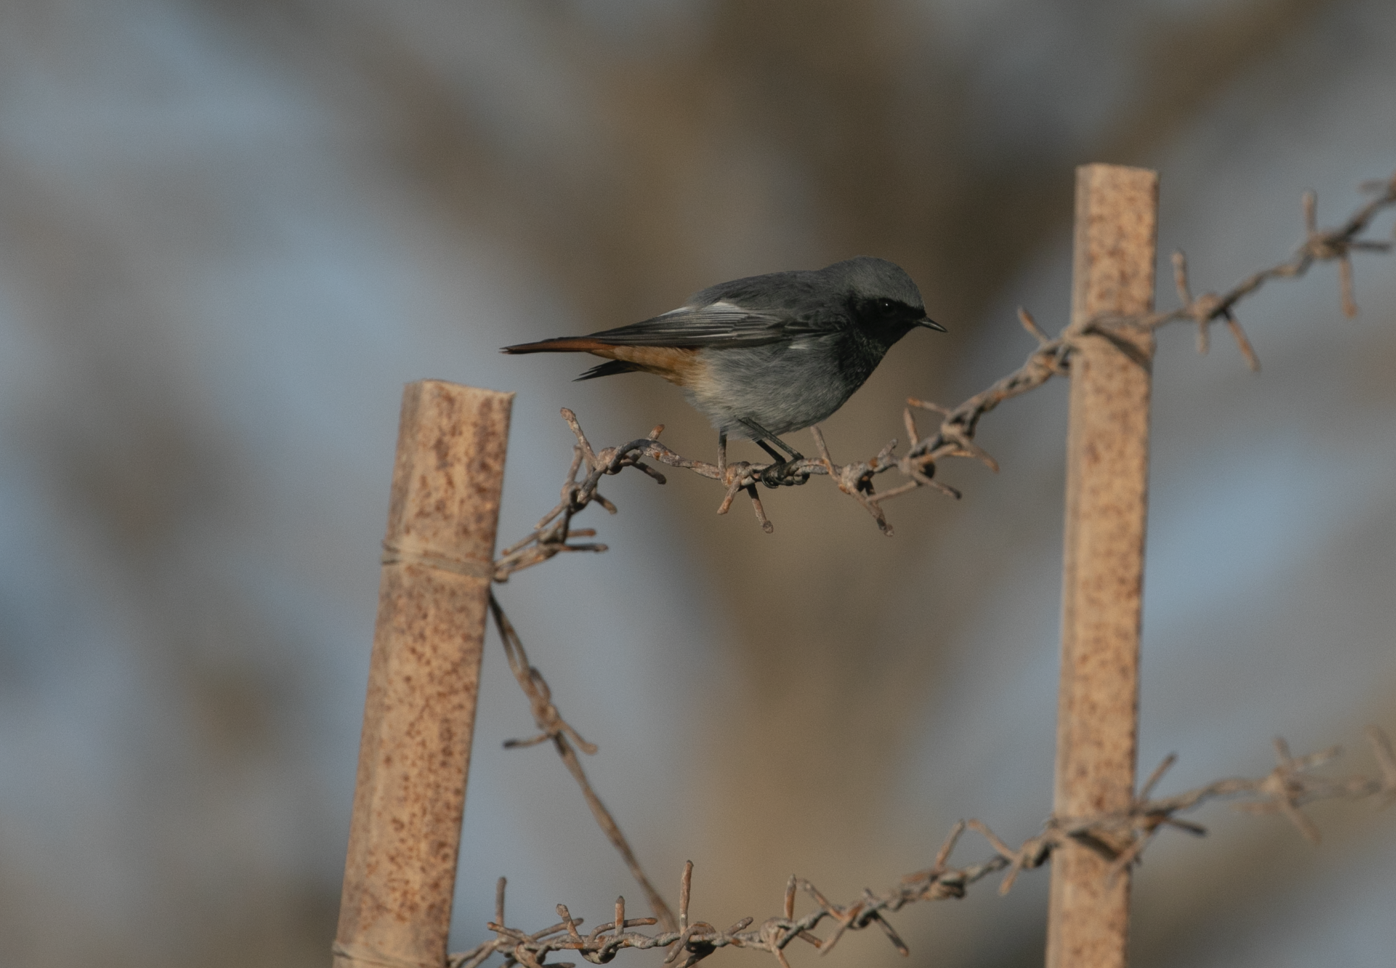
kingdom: Animalia
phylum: Chordata
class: Aves
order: Passeriformes
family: Muscicapidae
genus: Phoenicurus
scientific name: Phoenicurus ochruros
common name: Black redstart
